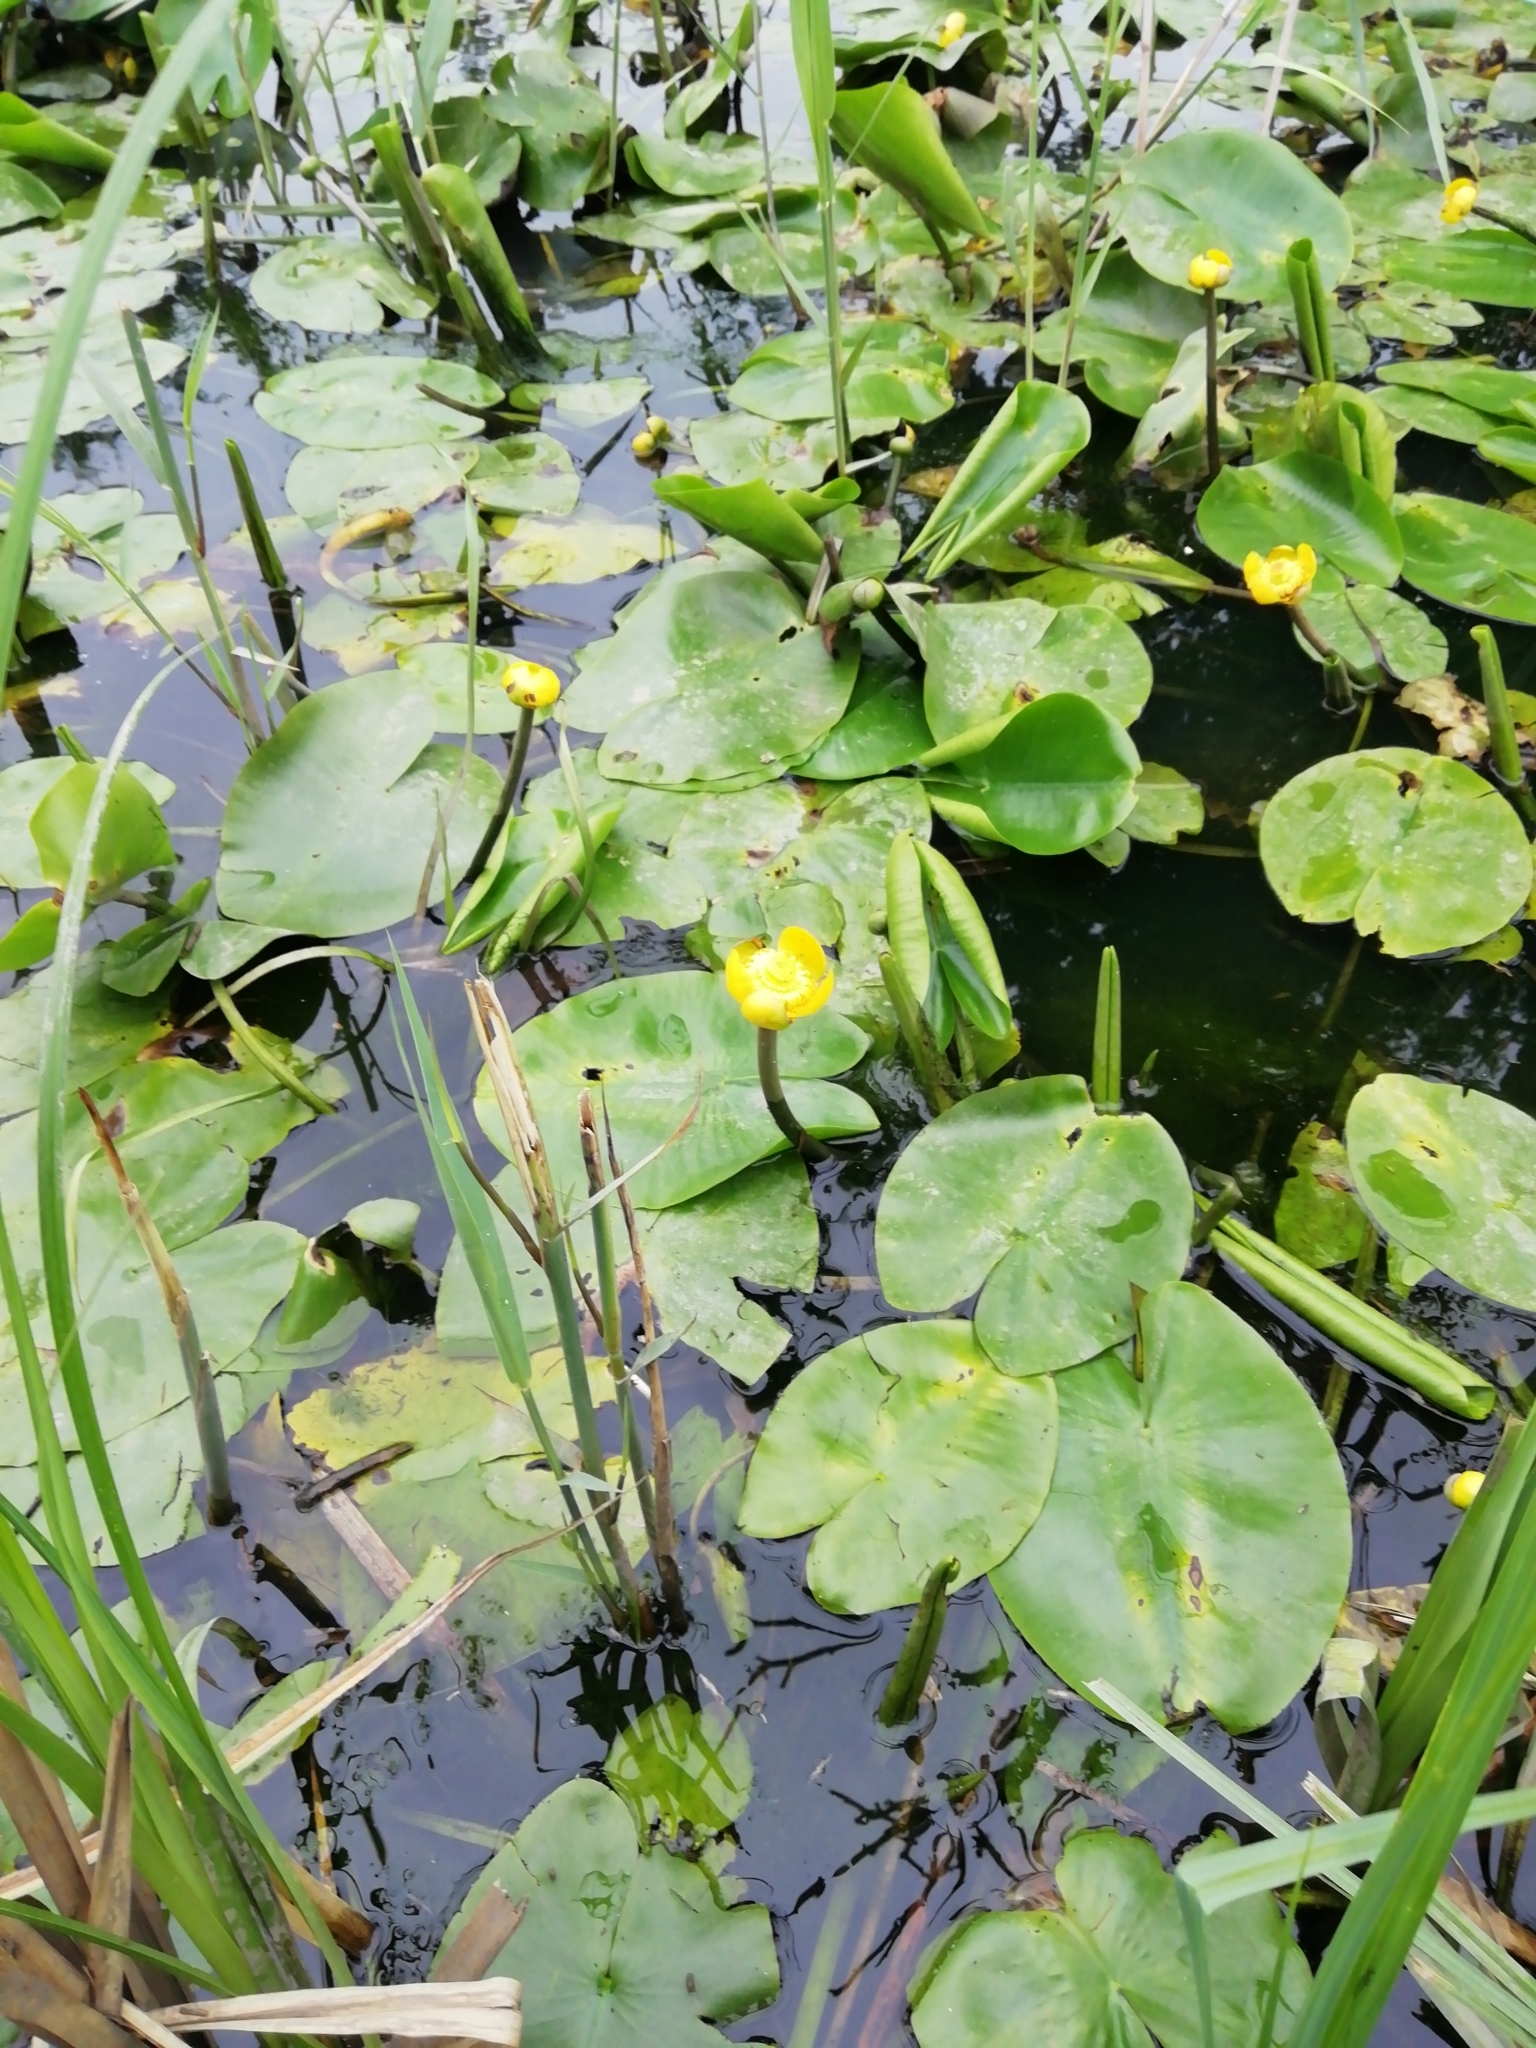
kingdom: Plantae
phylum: Tracheophyta
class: Magnoliopsida
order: Nymphaeales
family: Nymphaeaceae
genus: Nuphar
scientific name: Nuphar lutea
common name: Yellow water-lily
